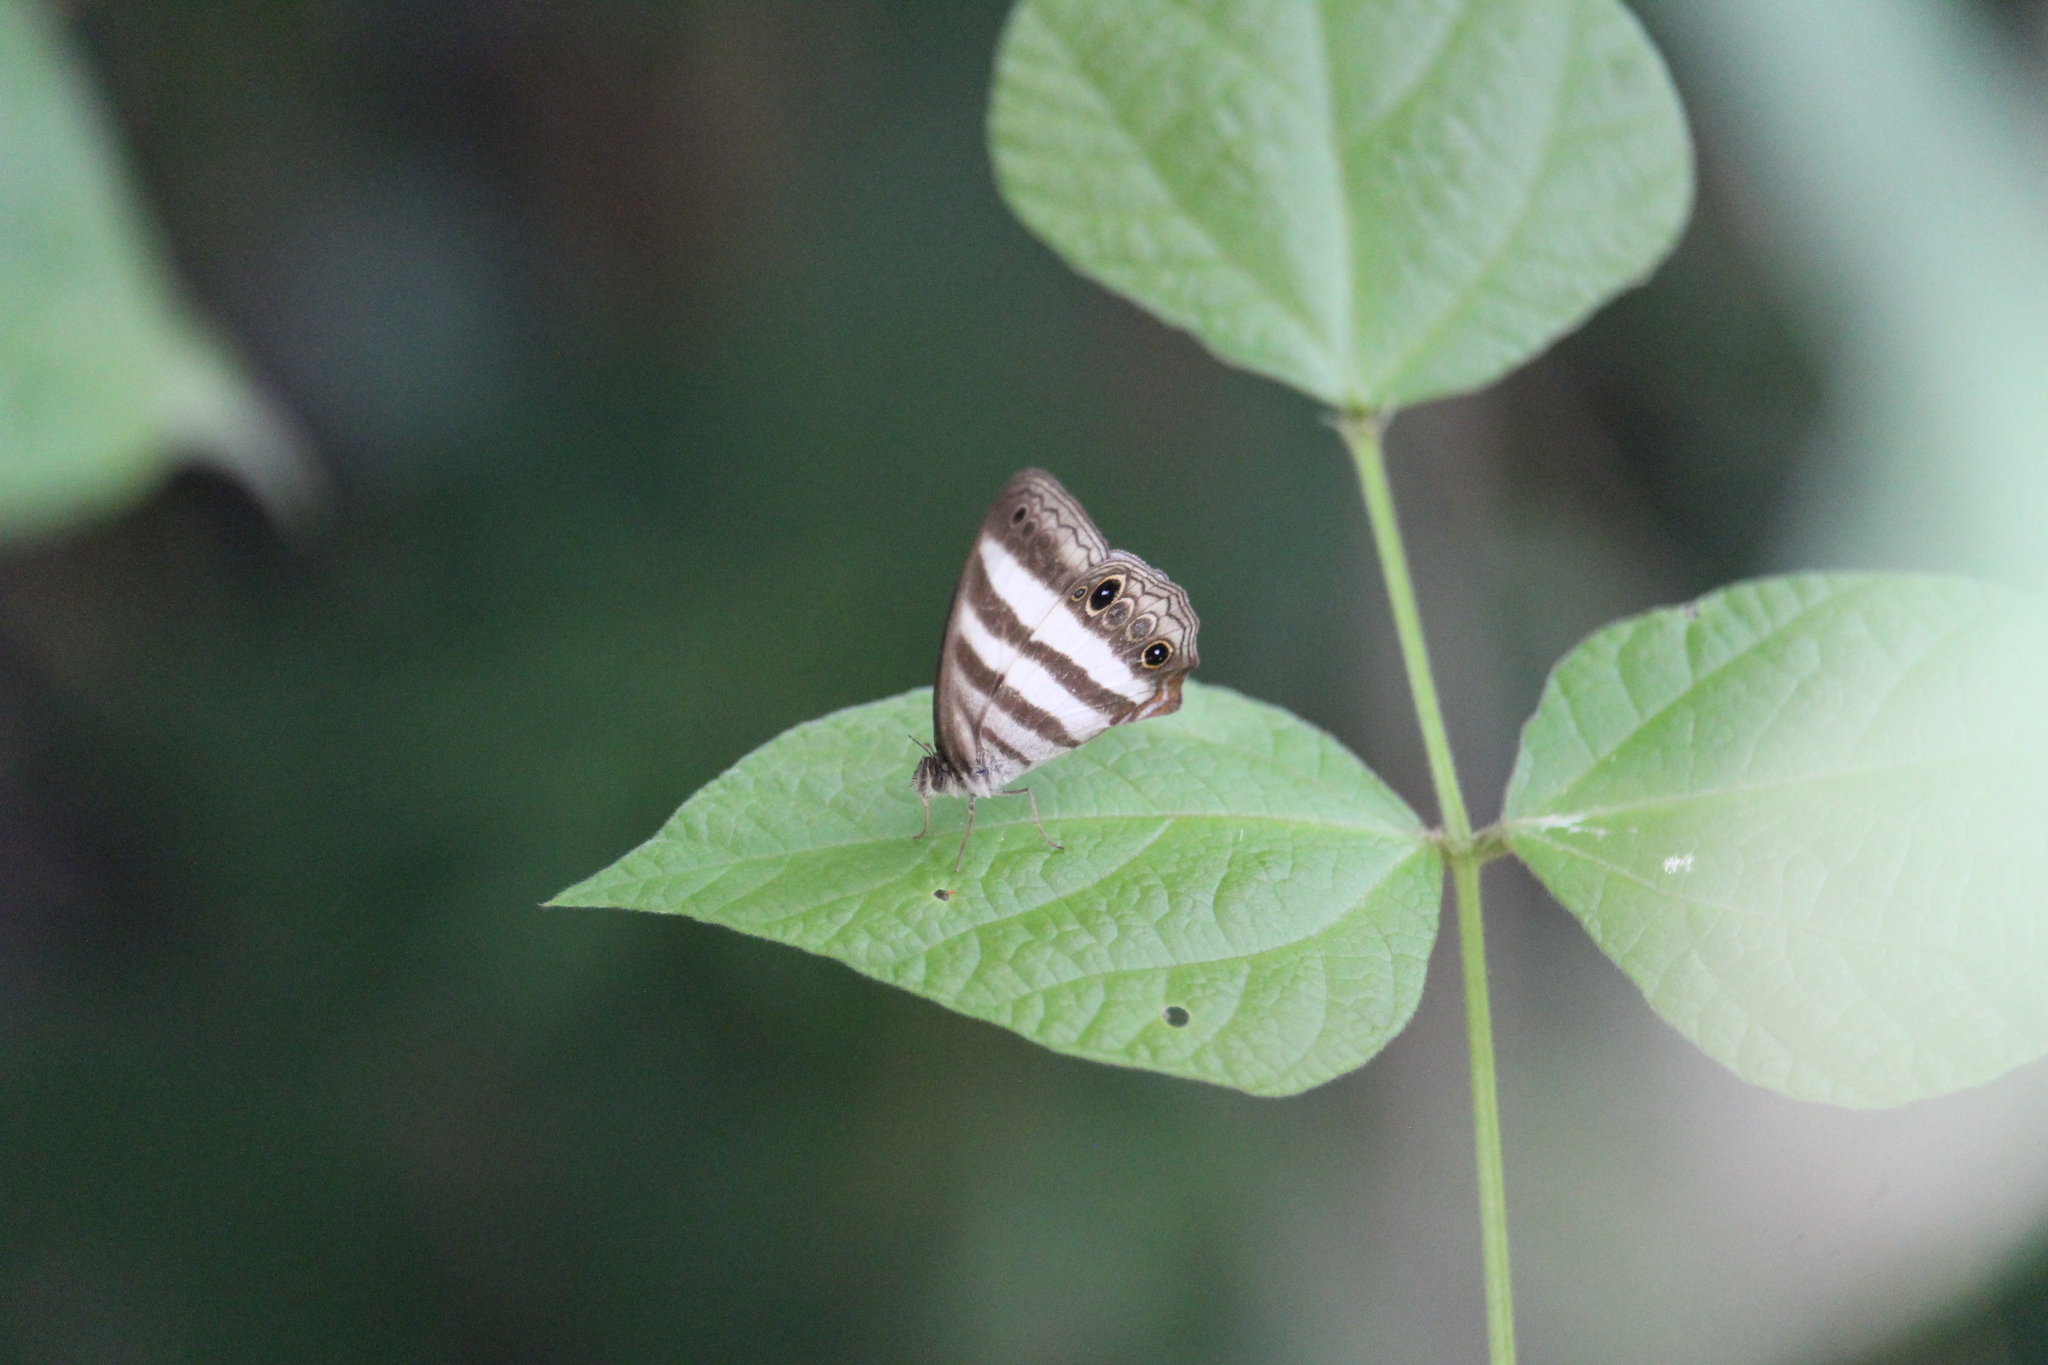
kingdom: Animalia
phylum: Arthropoda
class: Insecta
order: Lepidoptera
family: Nymphalidae
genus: Pareuptychia
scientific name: Pareuptychia hesione
